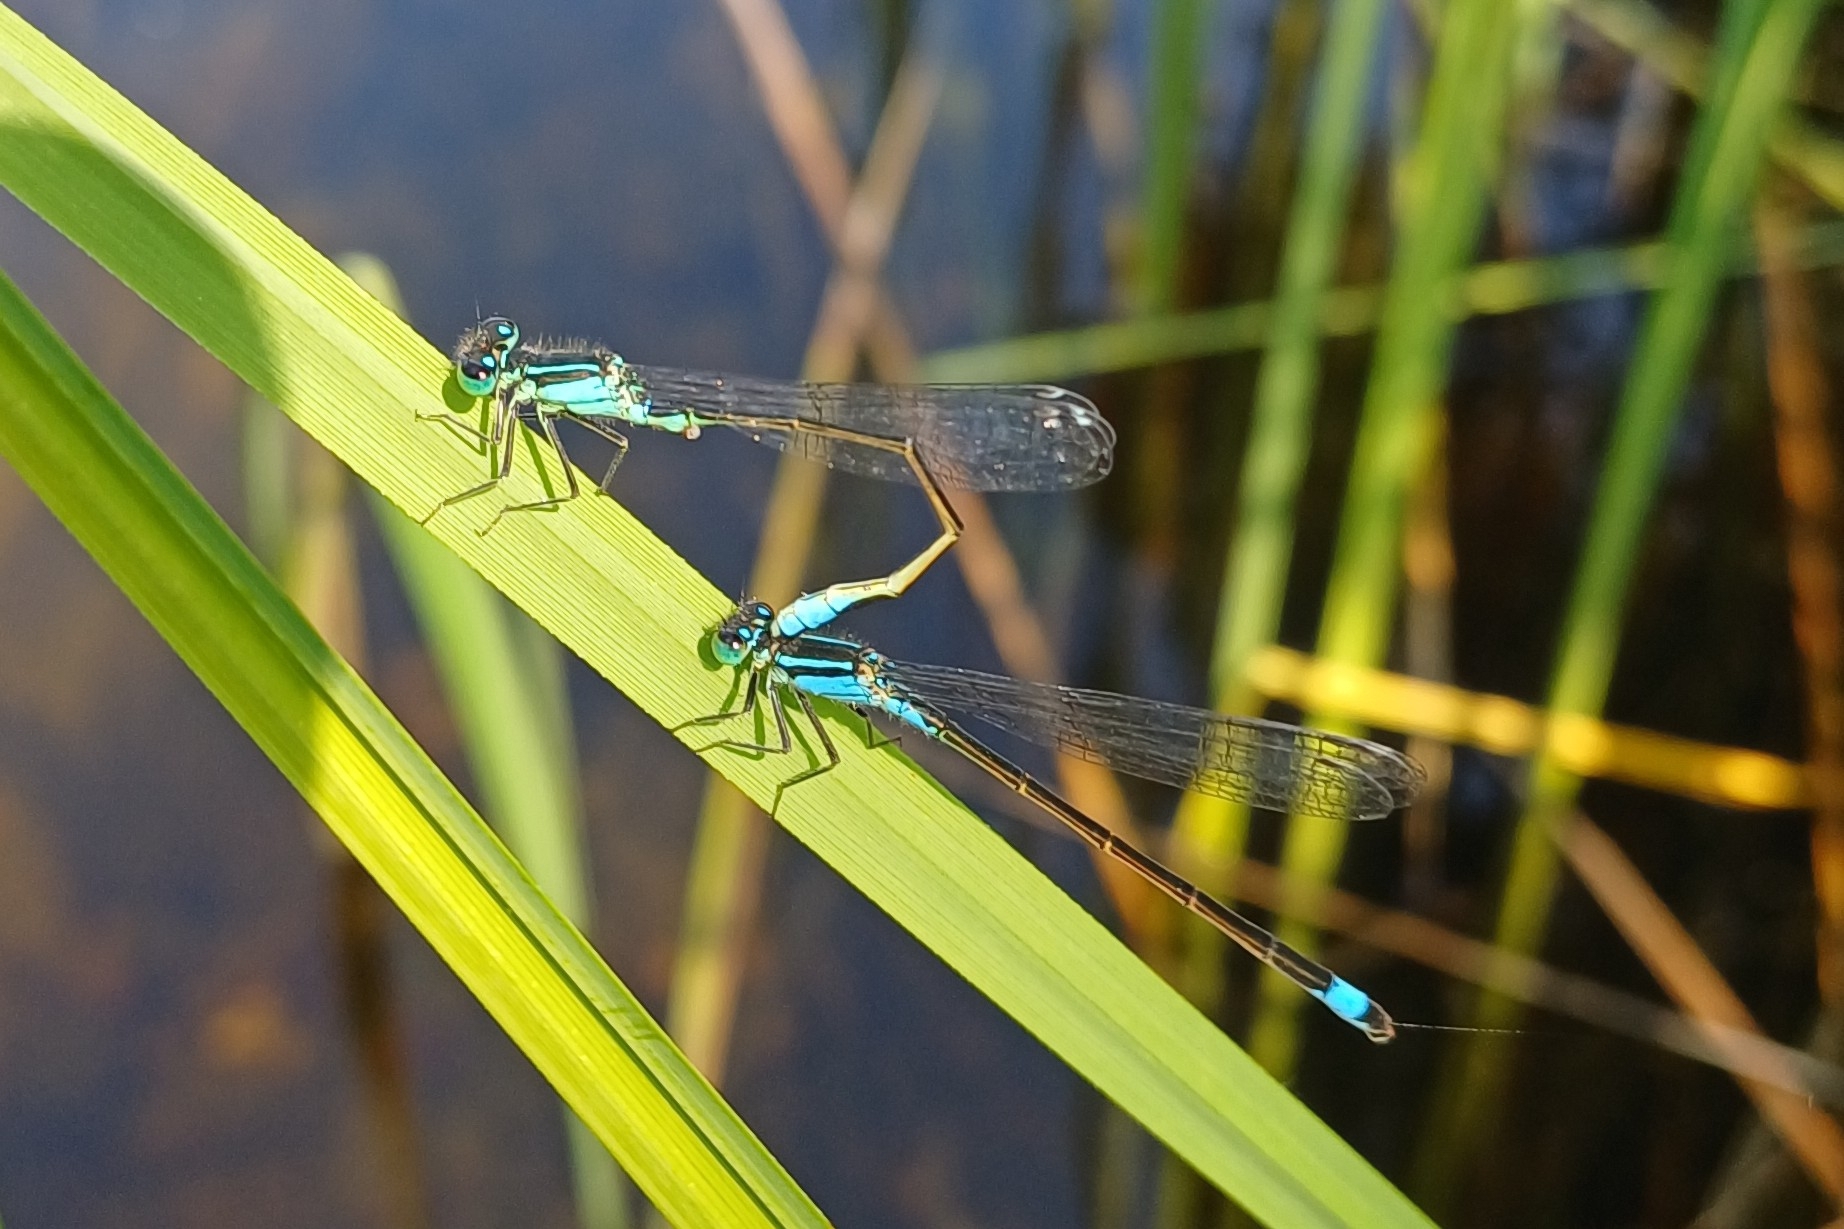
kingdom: Animalia
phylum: Arthropoda
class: Insecta
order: Odonata
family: Coenagrionidae
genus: Ischnura
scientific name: Ischnura elegans
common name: Blue-tailed damselfly
